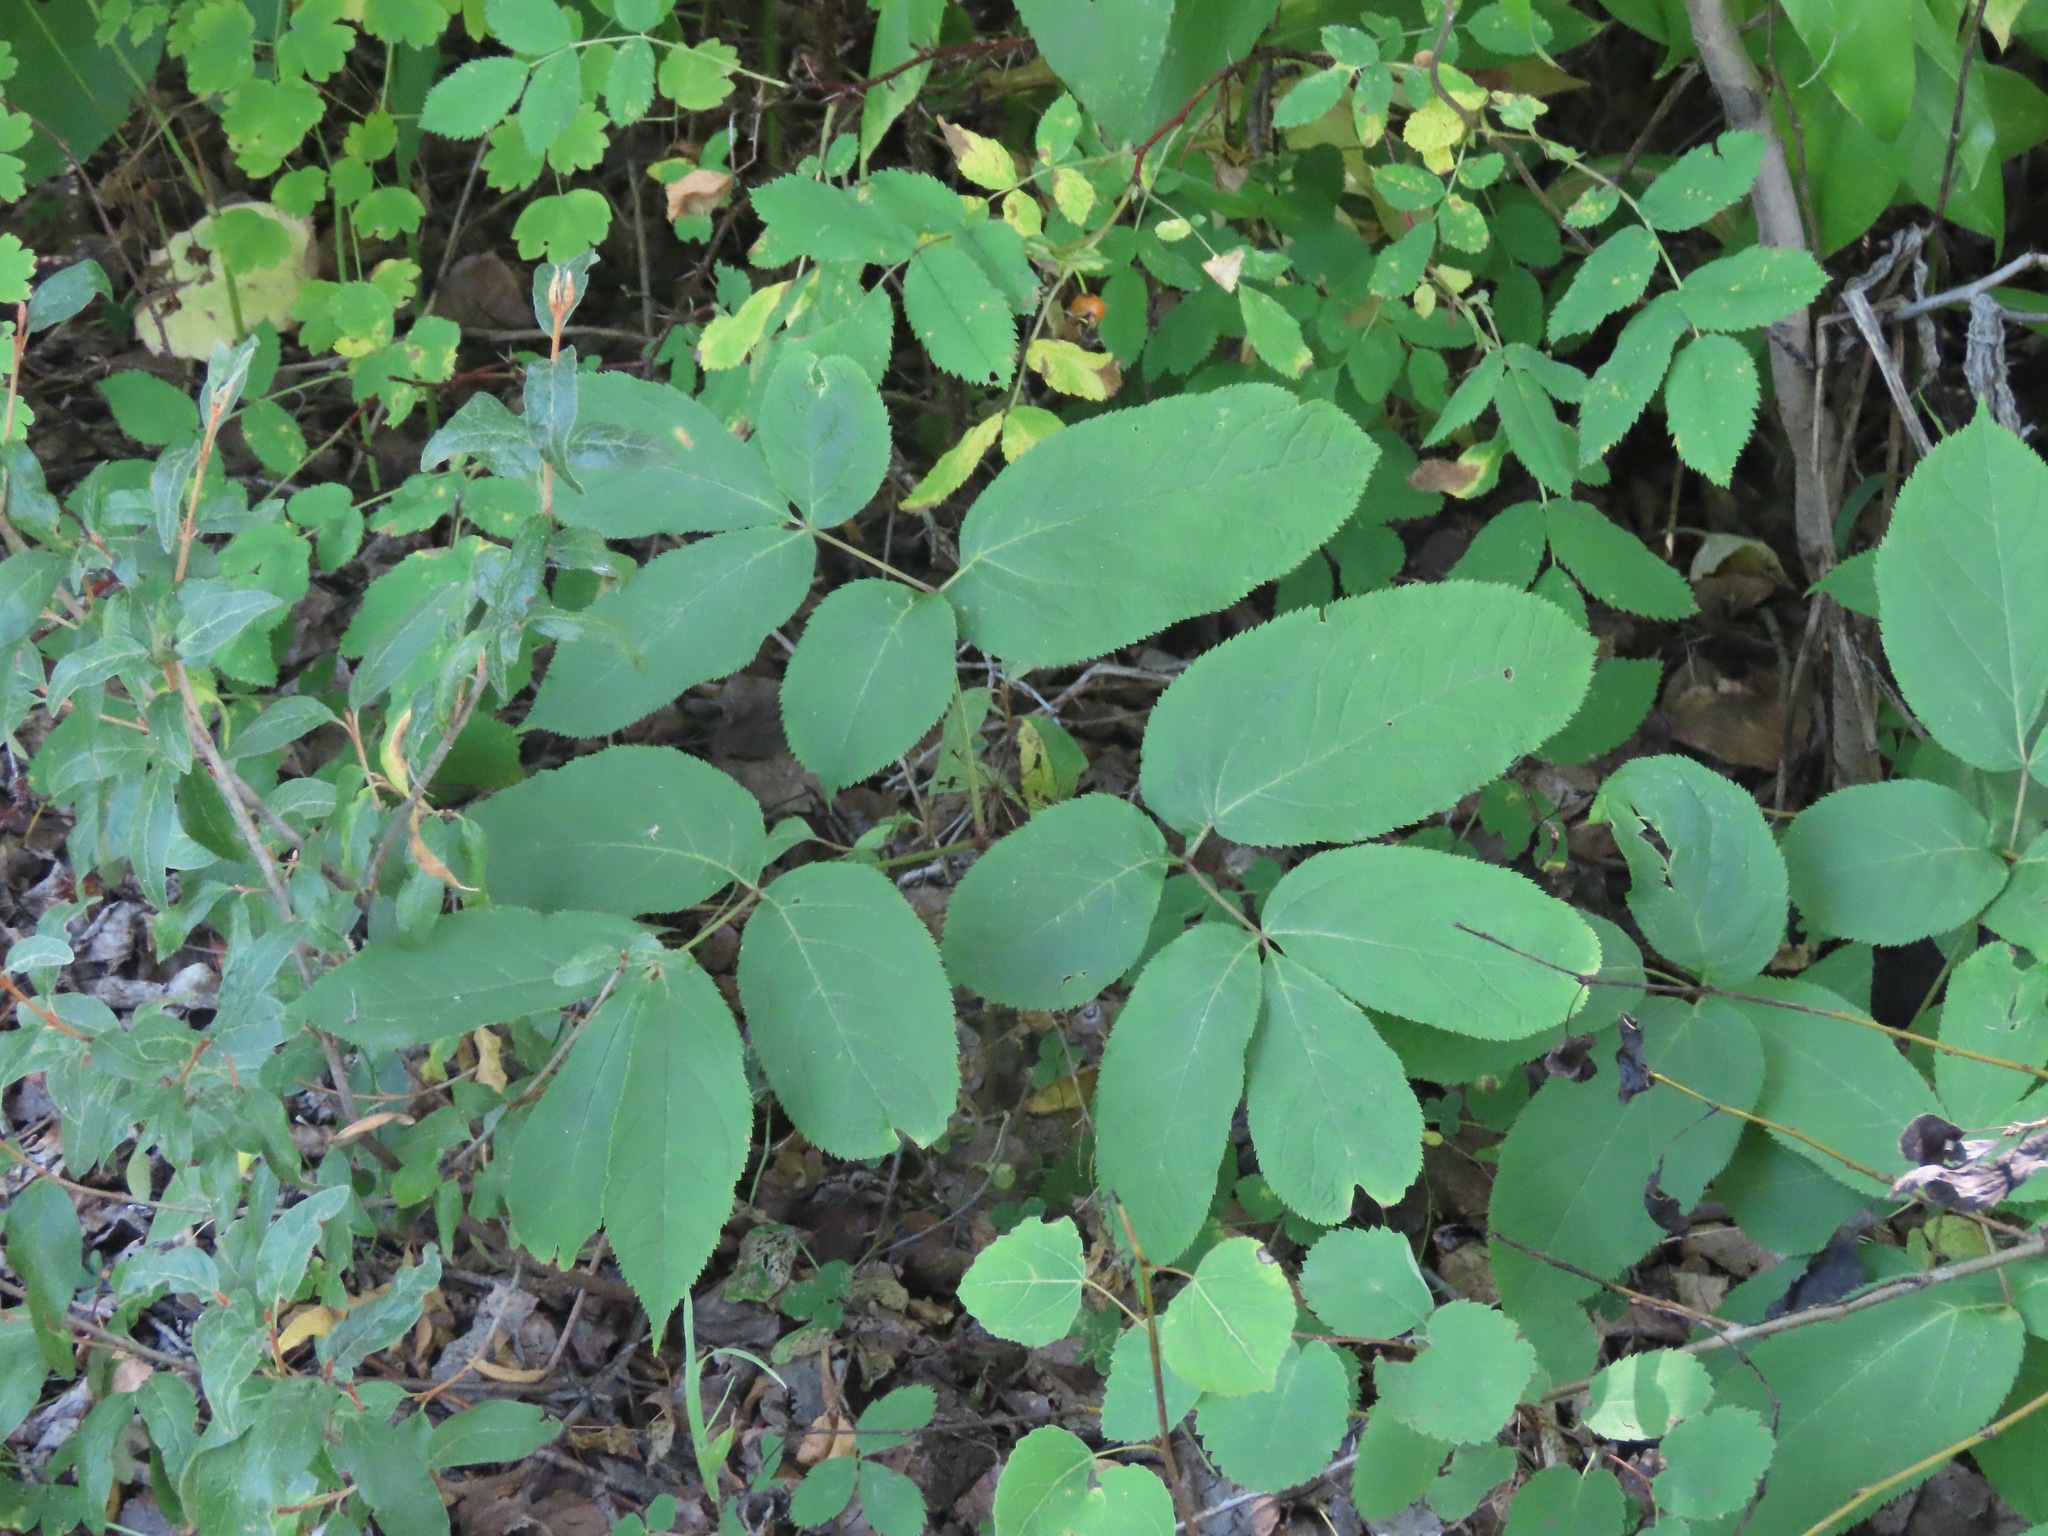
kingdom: Plantae
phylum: Tracheophyta
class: Magnoliopsida
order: Apiales
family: Araliaceae
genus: Aralia
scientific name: Aralia nudicaulis
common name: Wild sarsaparilla
